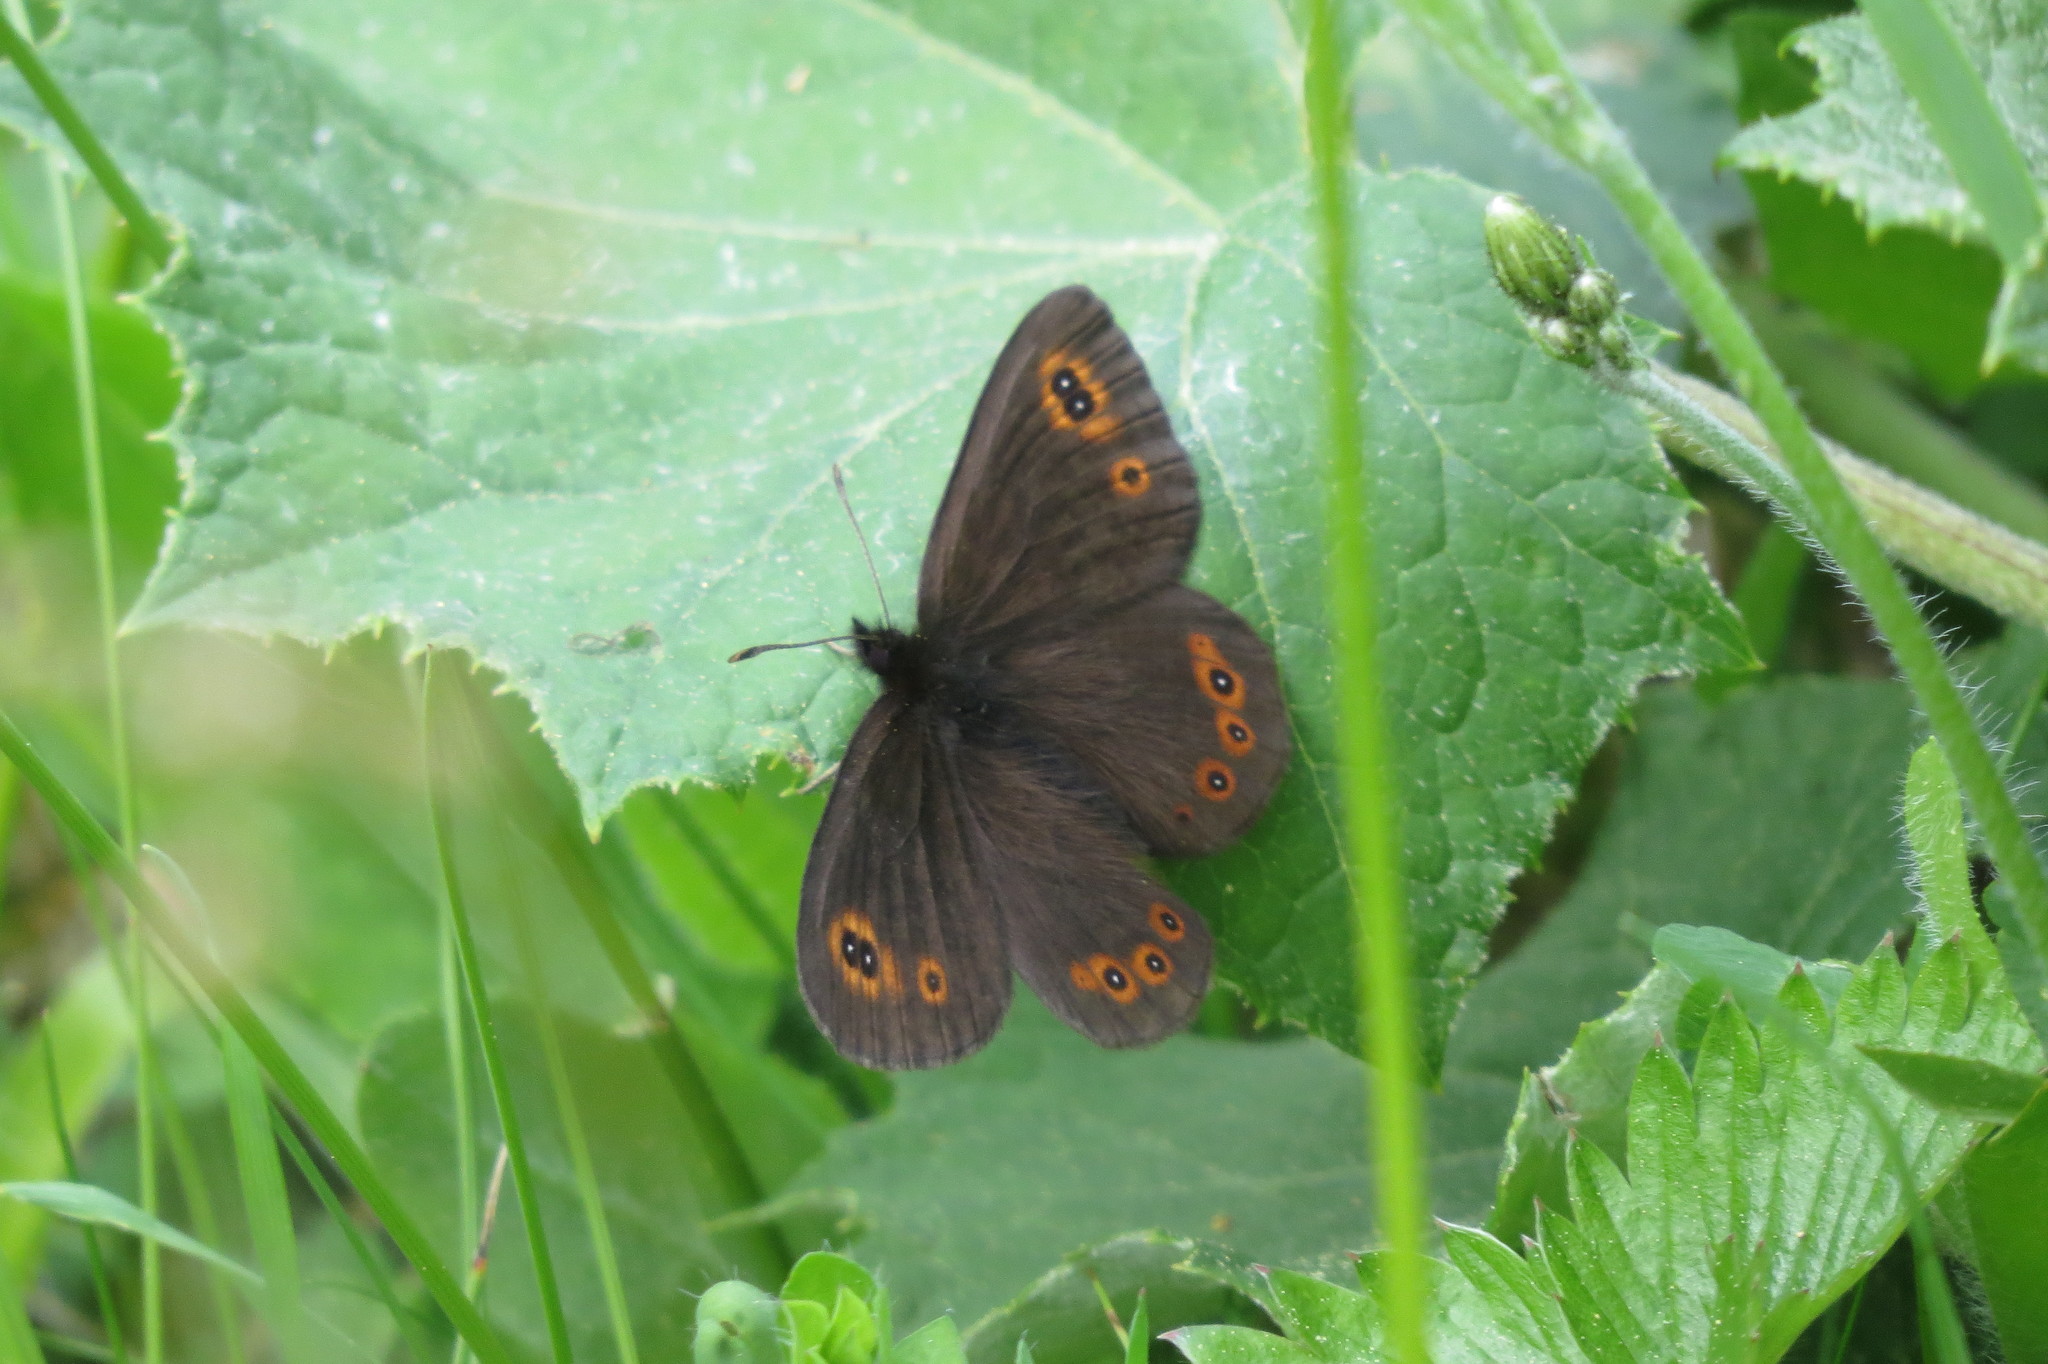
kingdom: Animalia
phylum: Arthropoda
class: Insecta
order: Lepidoptera
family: Nymphalidae
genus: Erebia
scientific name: Erebia medusa
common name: Woodland ringlet
